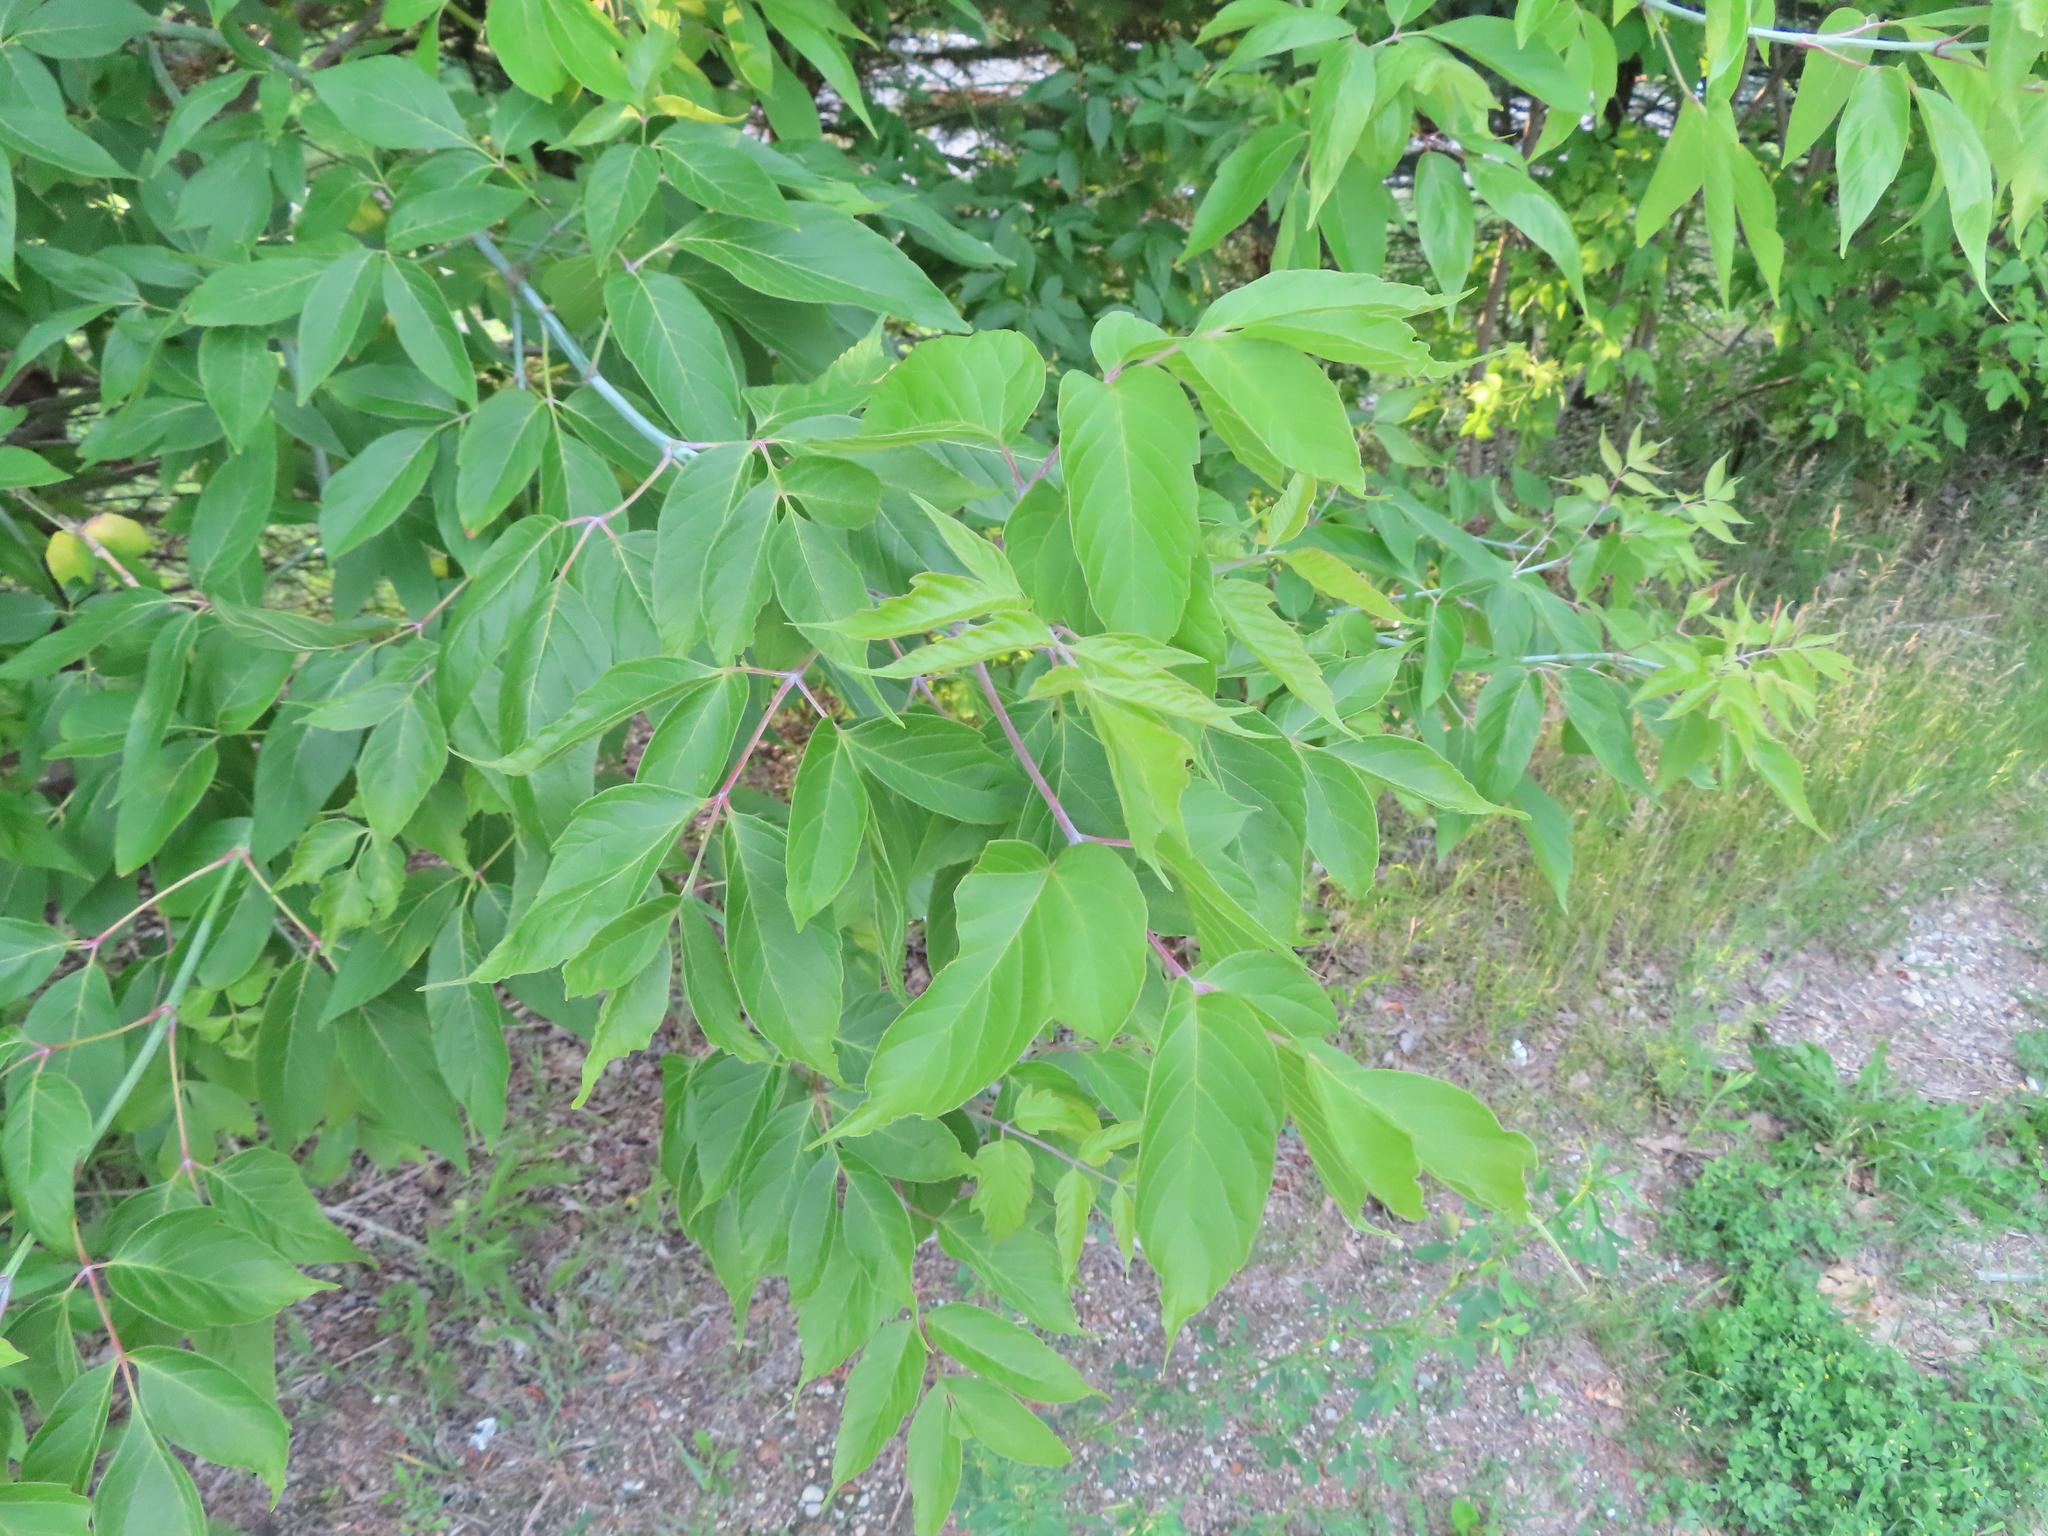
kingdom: Plantae
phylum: Tracheophyta
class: Magnoliopsida
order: Sapindales
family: Sapindaceae
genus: Acer
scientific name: Acer negundo
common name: Ashleaf maple
